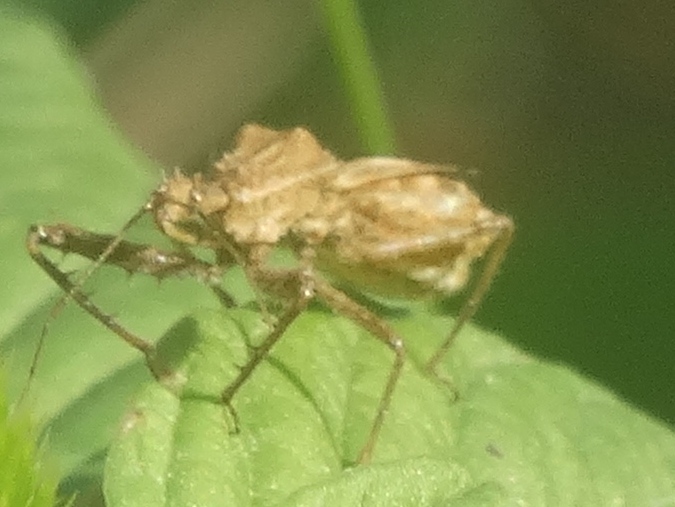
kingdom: Animalia
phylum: Arthropoda
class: Insecta
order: Hemiptera
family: Reduviidae
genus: Sinea
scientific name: Sinea
